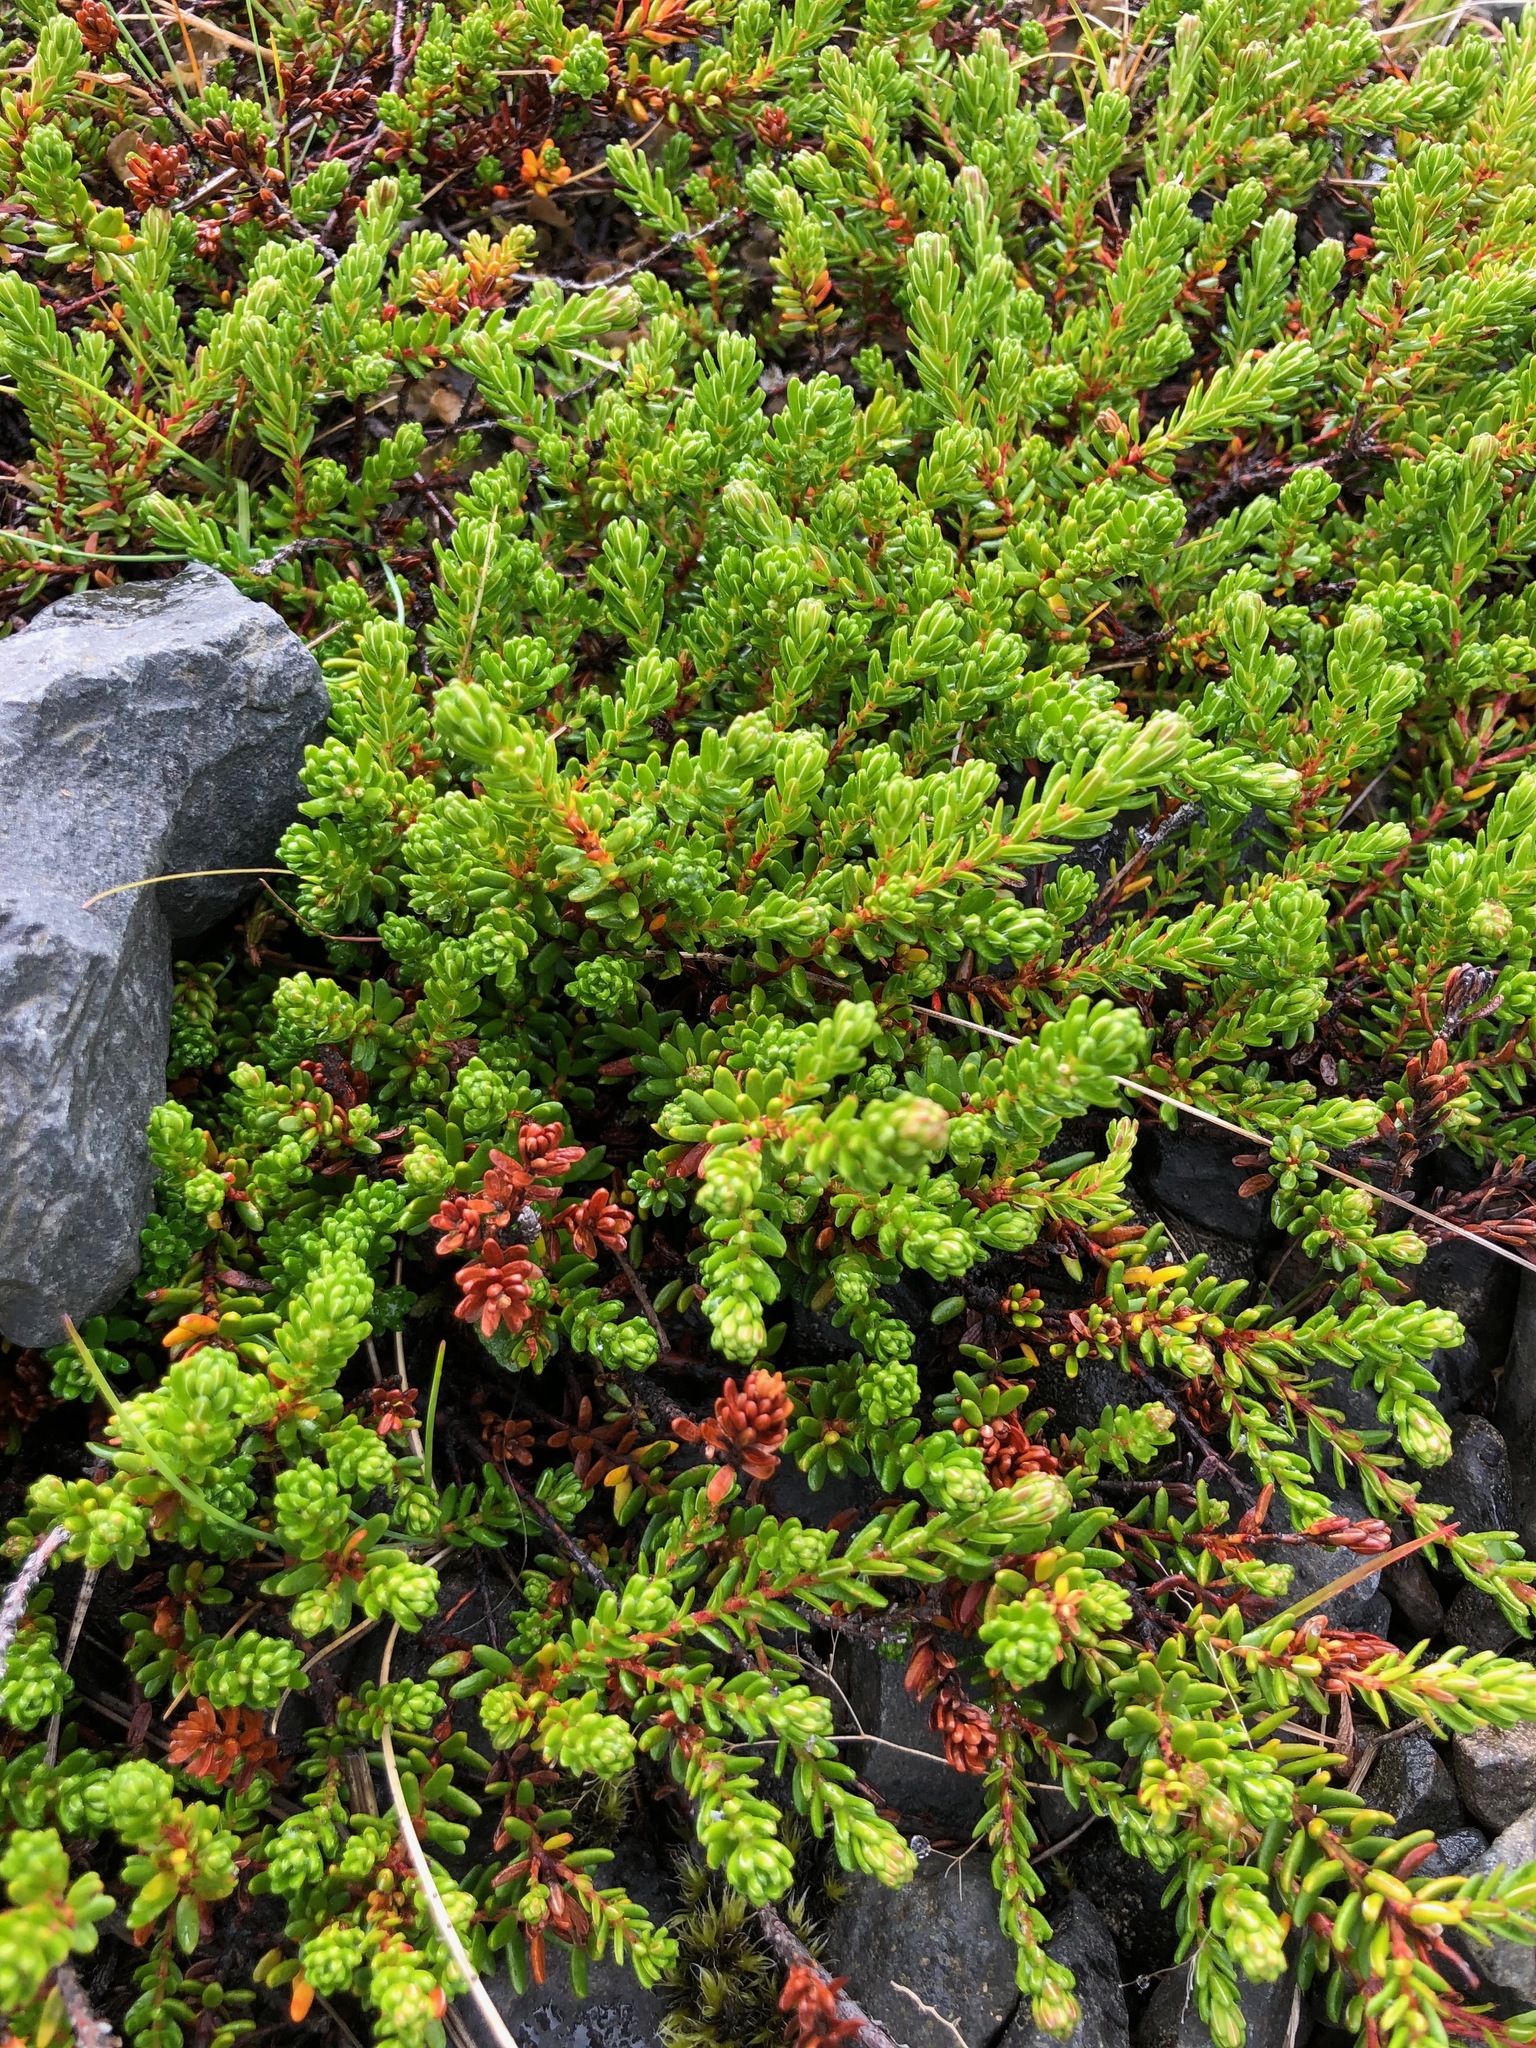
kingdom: Plantae
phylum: Tracheophyta
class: Magnoliopsida
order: Ericales
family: Ericaceae
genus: Empetrum
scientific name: Empetrum nigrum
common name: Black crowberry
